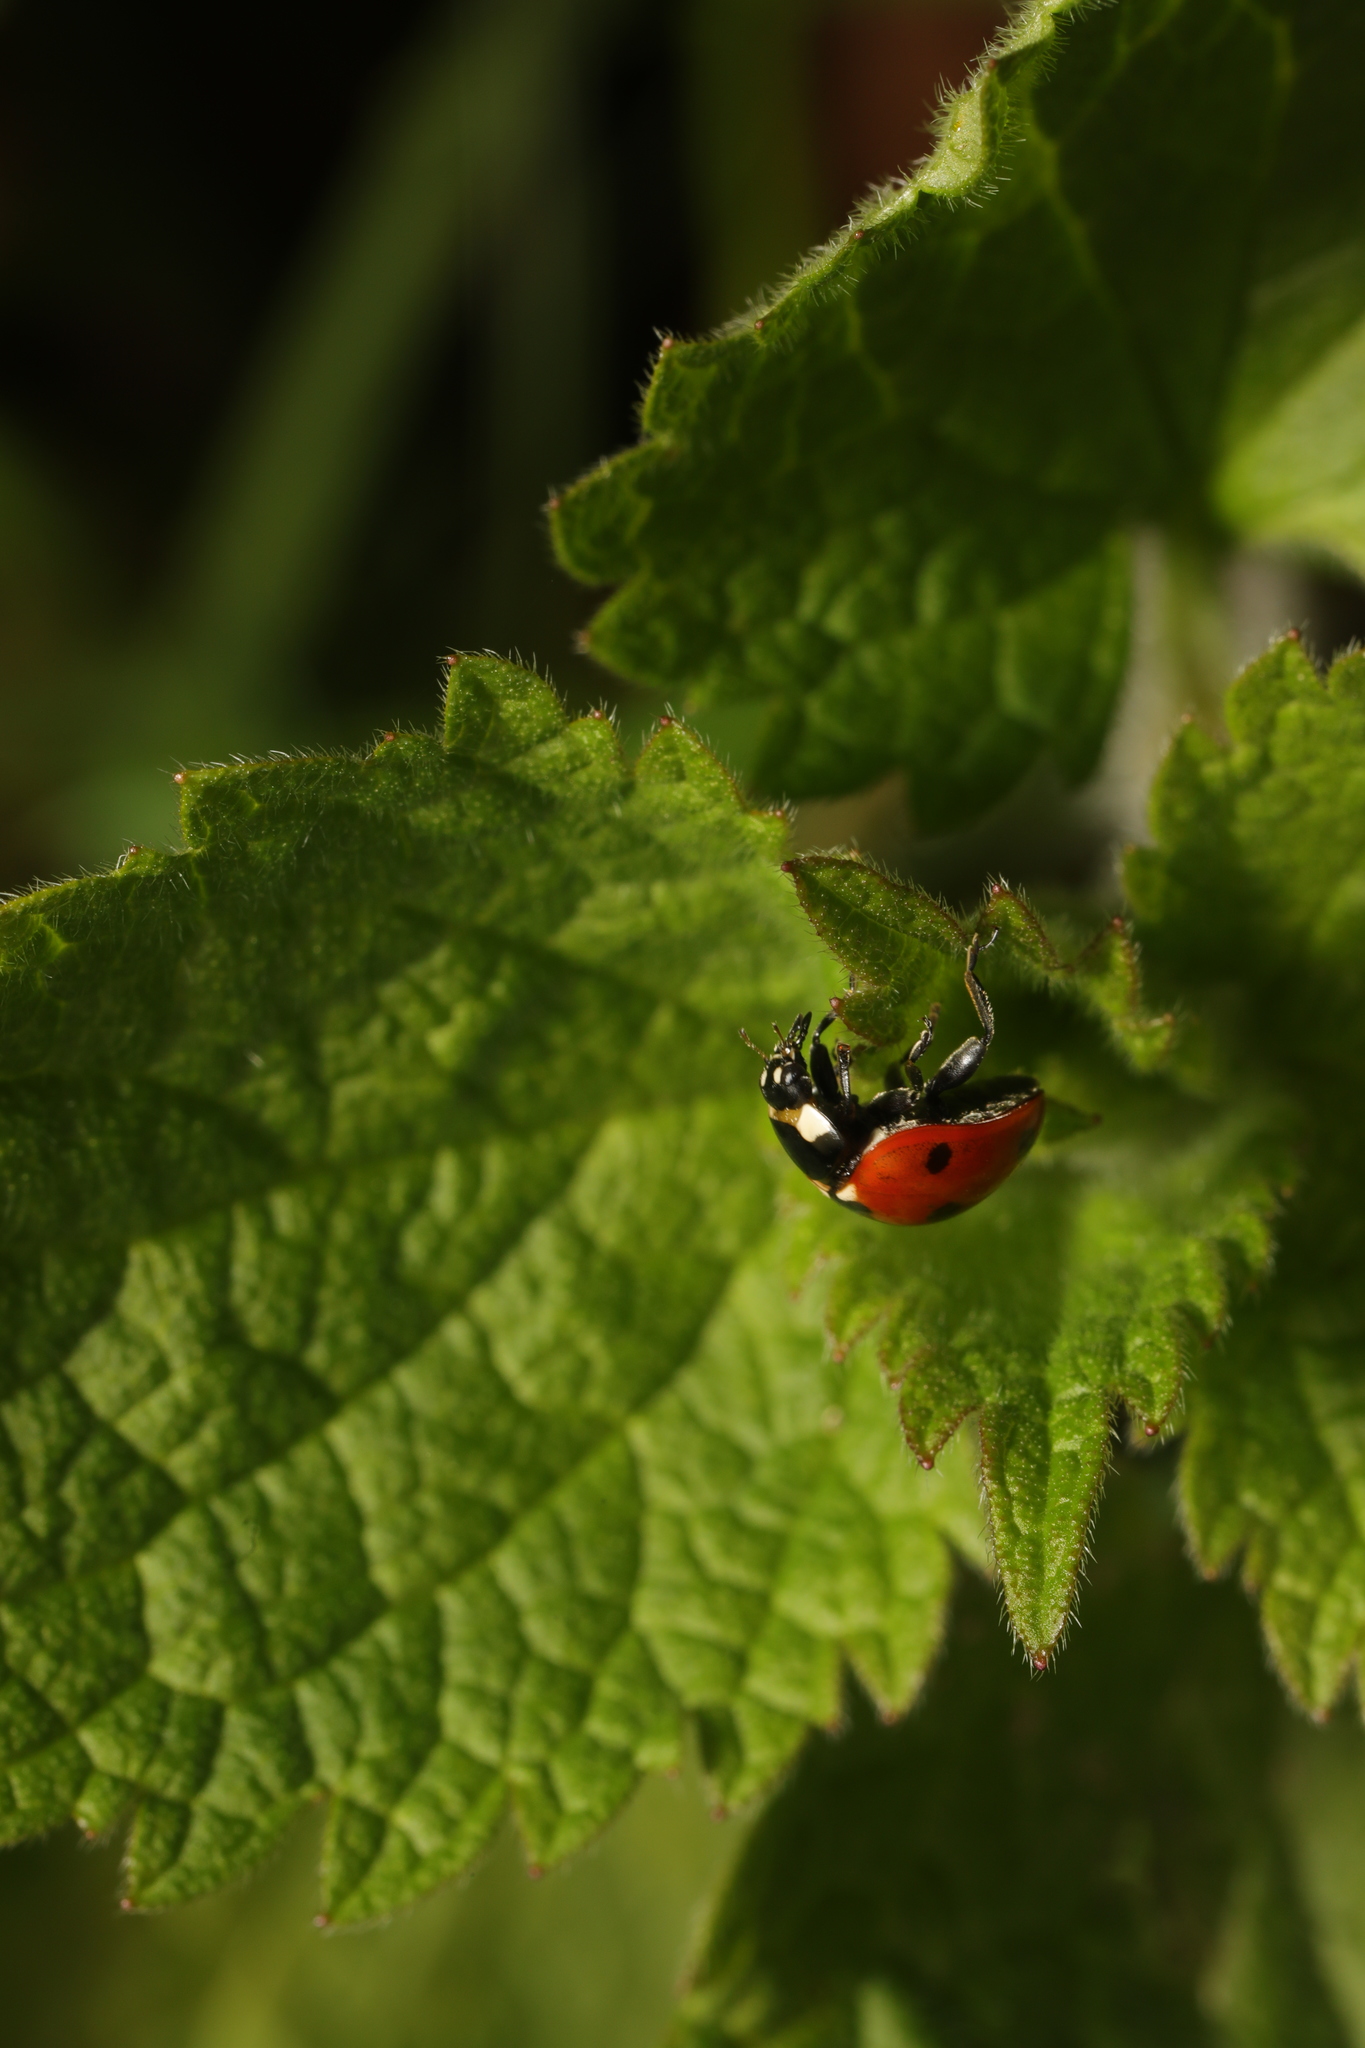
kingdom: Animalia
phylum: Arthropoda
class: Insecta
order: Coleoptera
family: Coccinellidae
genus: Coccinella
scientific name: Coccinella septempunctata
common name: Sevenspotted lady beetle
